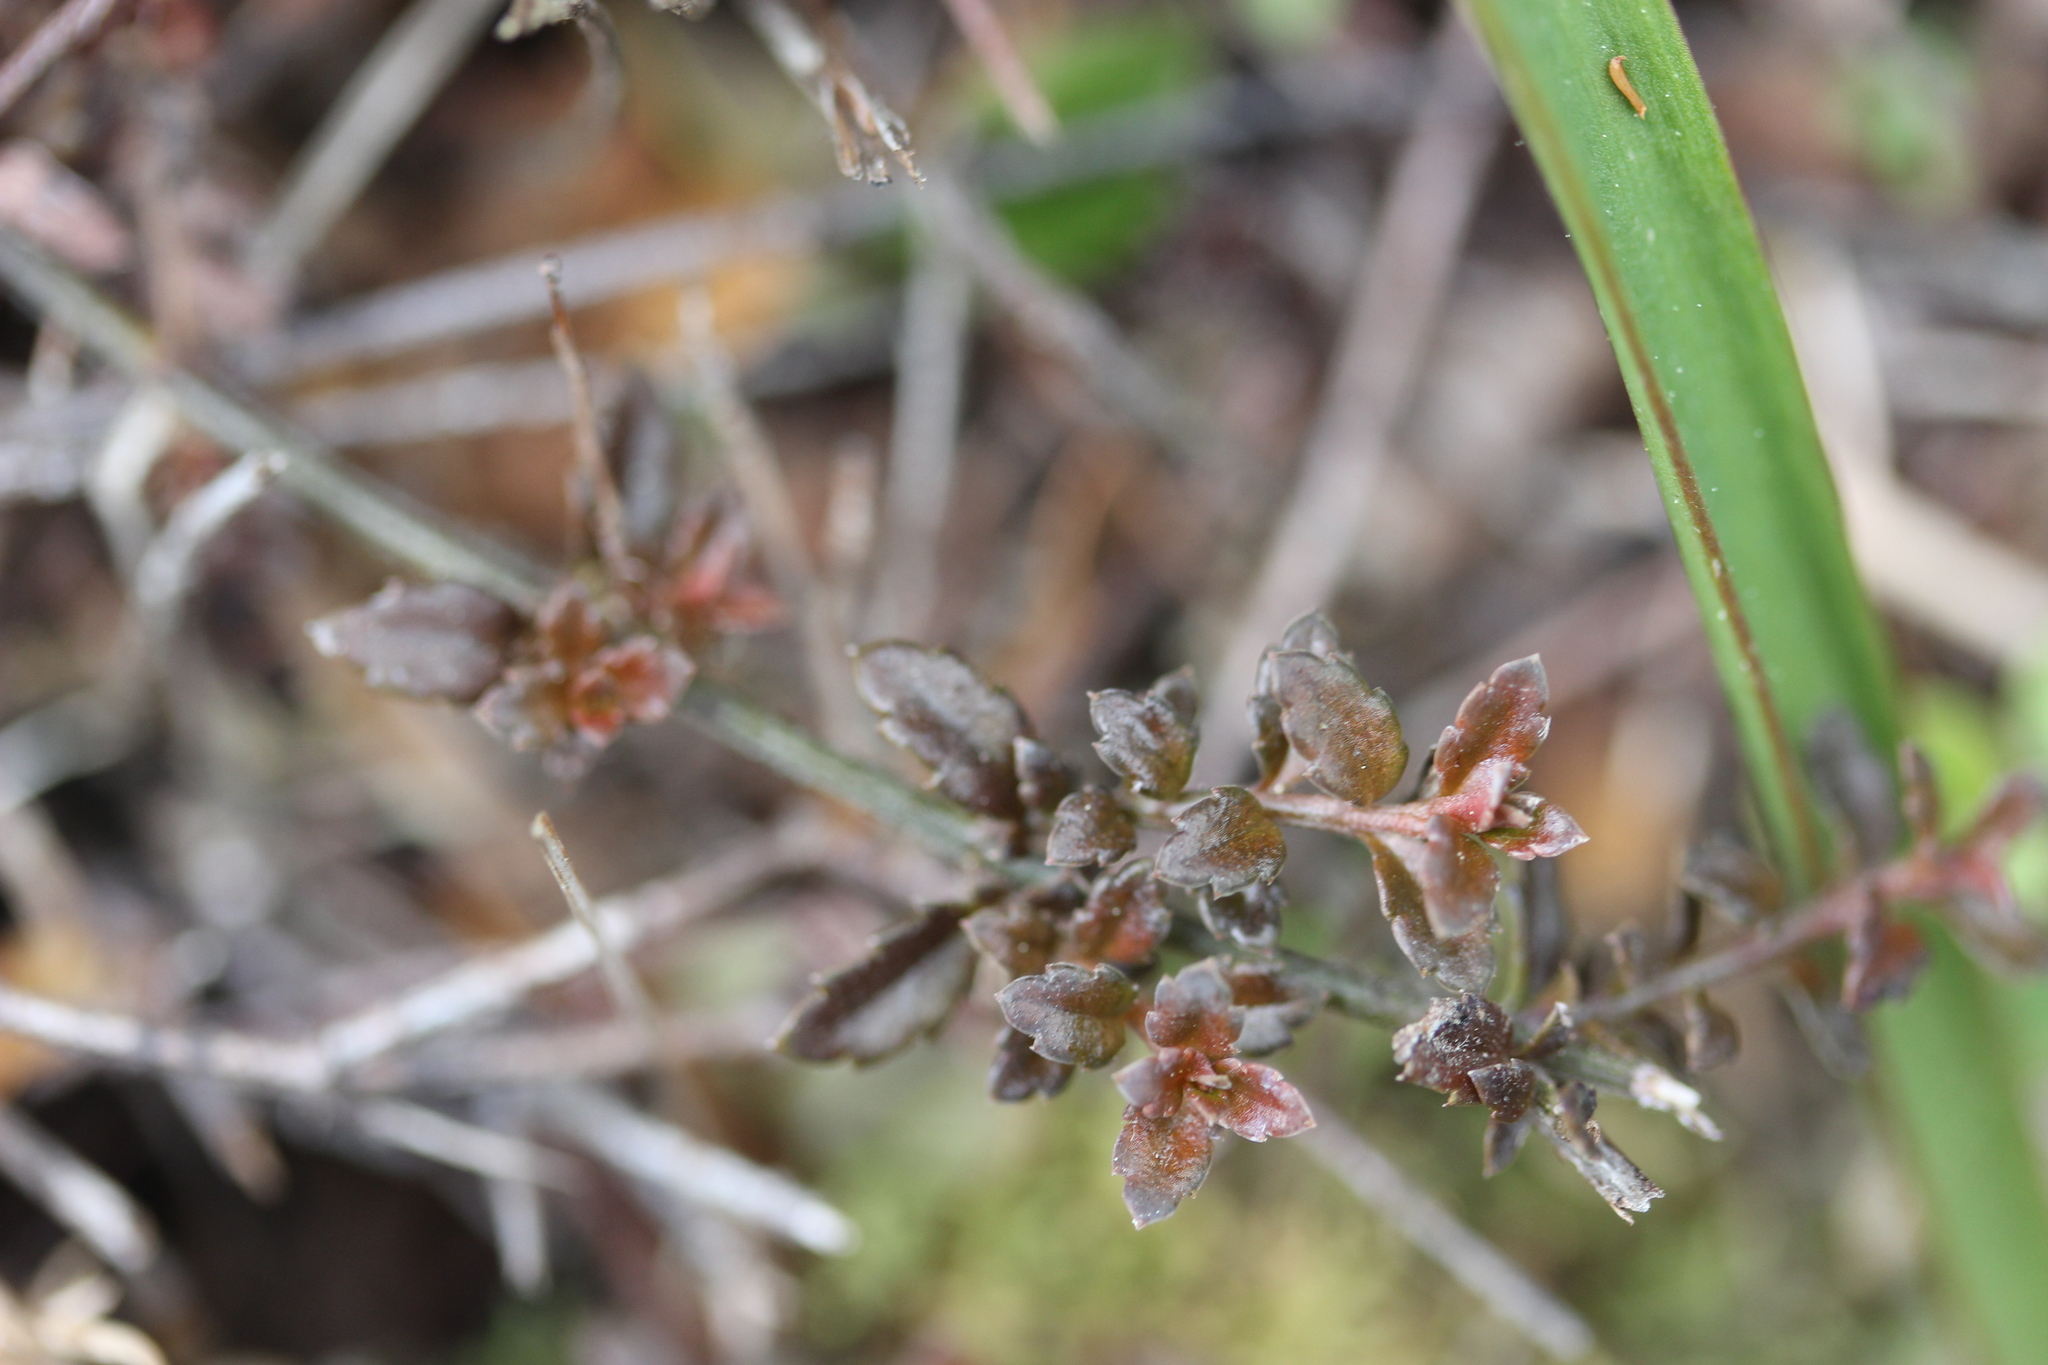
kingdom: Plantae
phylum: Tracheophyta
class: Magnoliopsida
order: Saxifragales
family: Haloragaceae
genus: Gonocarpus
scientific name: Gonocarpus incanus
